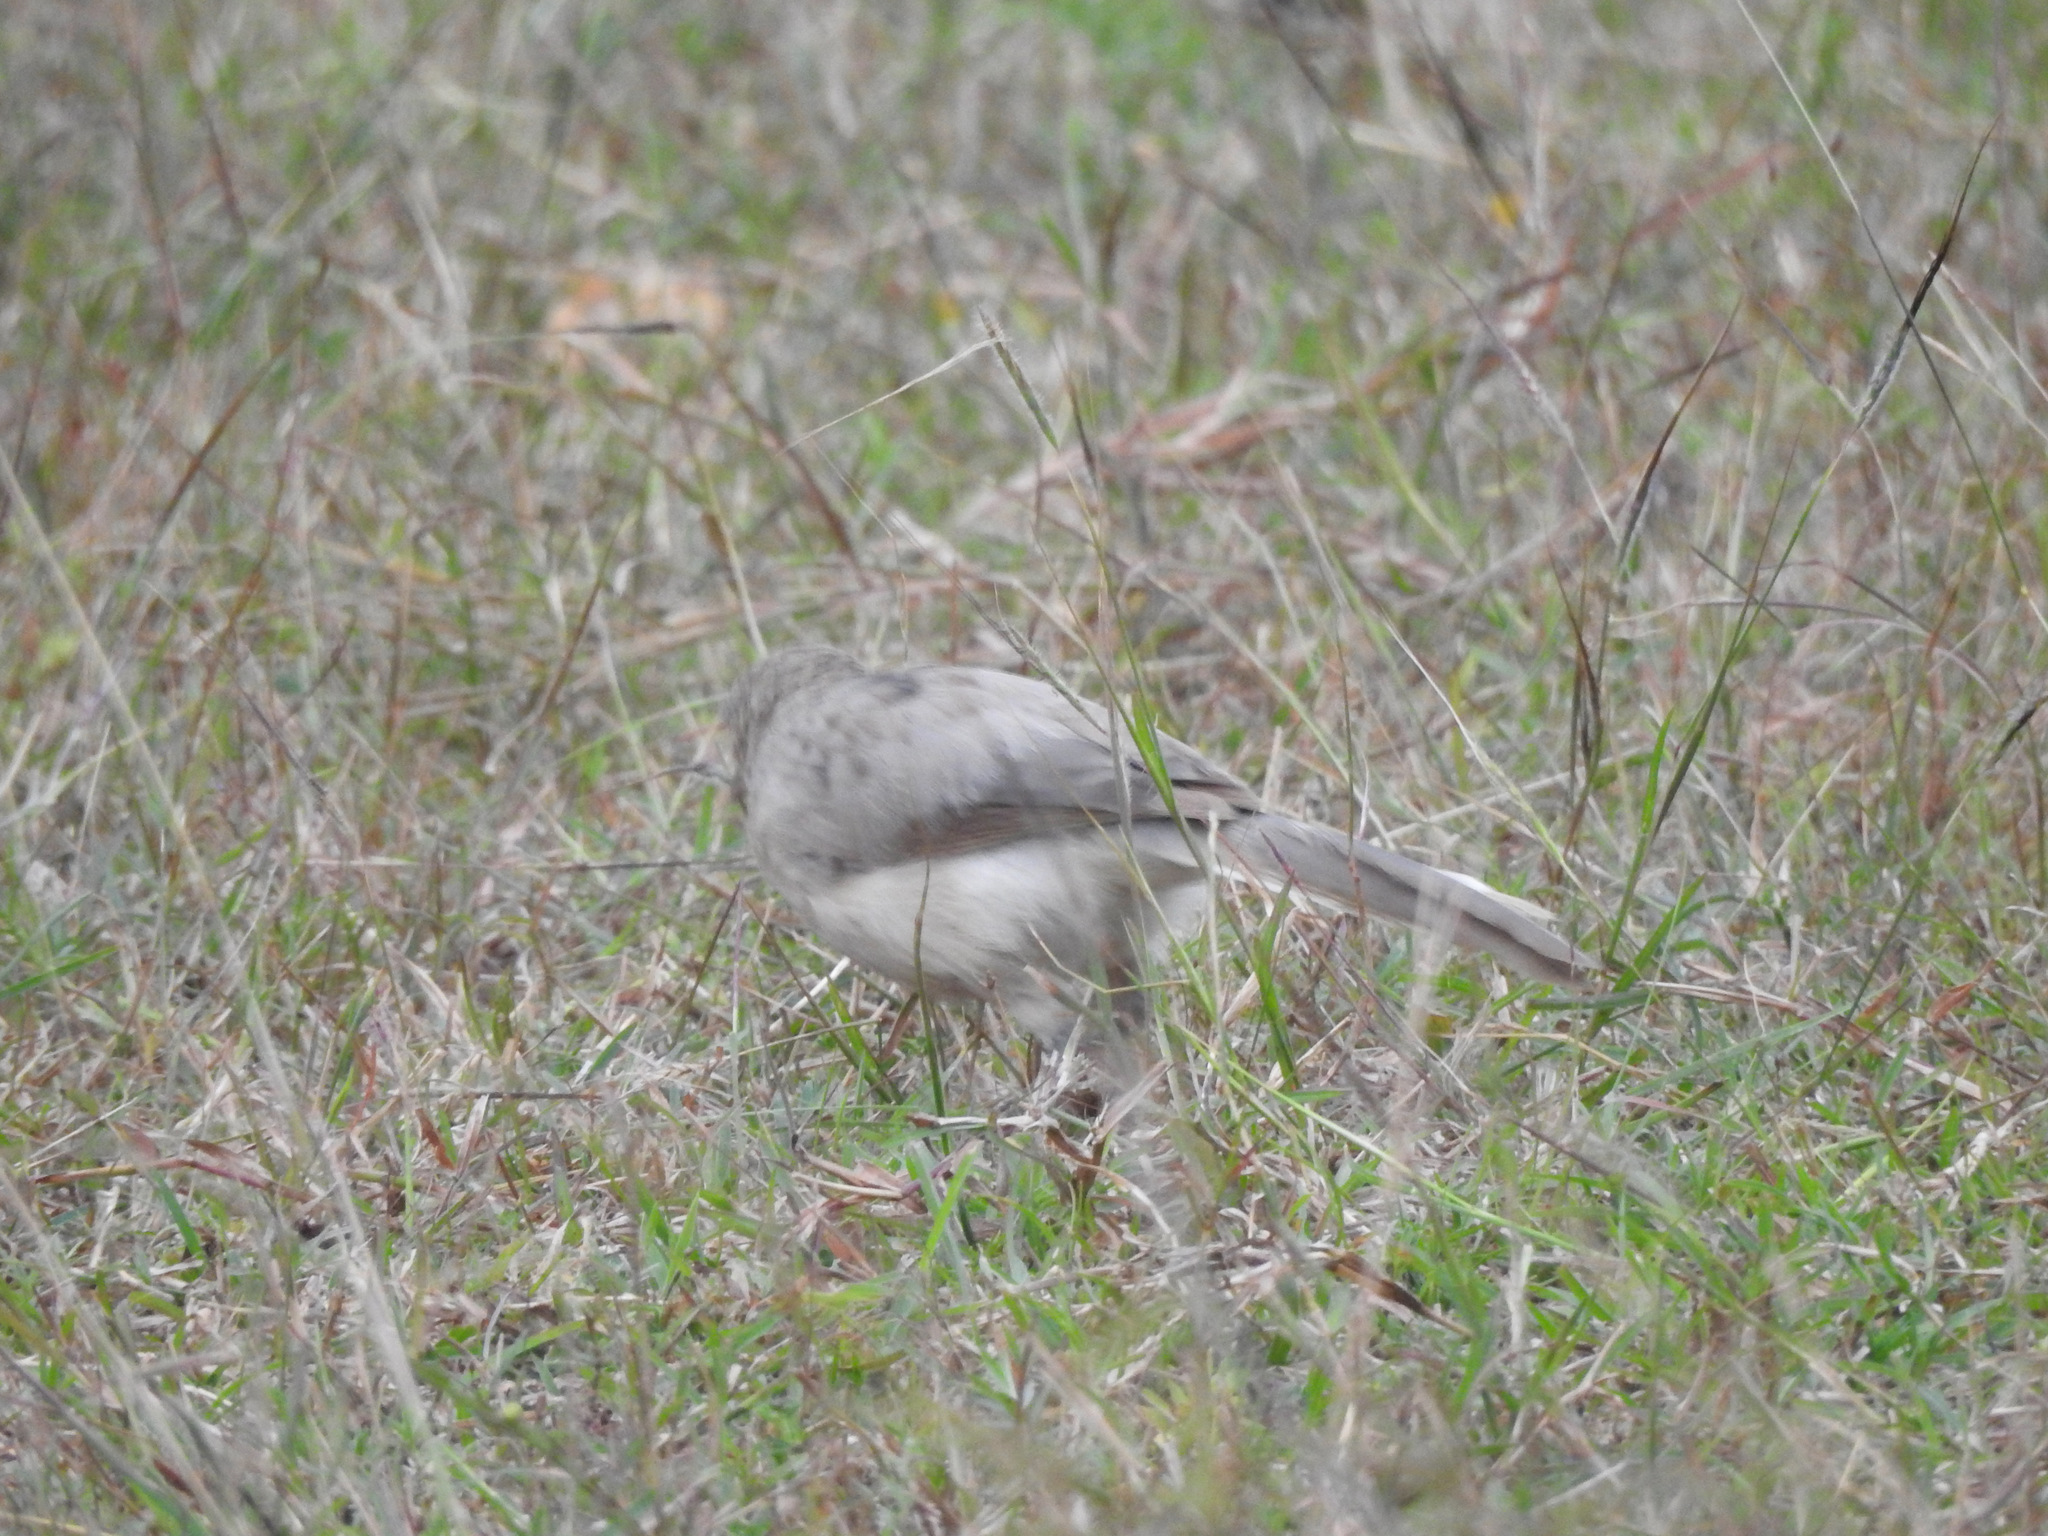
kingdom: Animalia
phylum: Chordata
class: Aves
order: Passeriformes
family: Leiothrichidae
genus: Turdoides
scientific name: Turdoides malcolmi
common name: Large grey babbler
